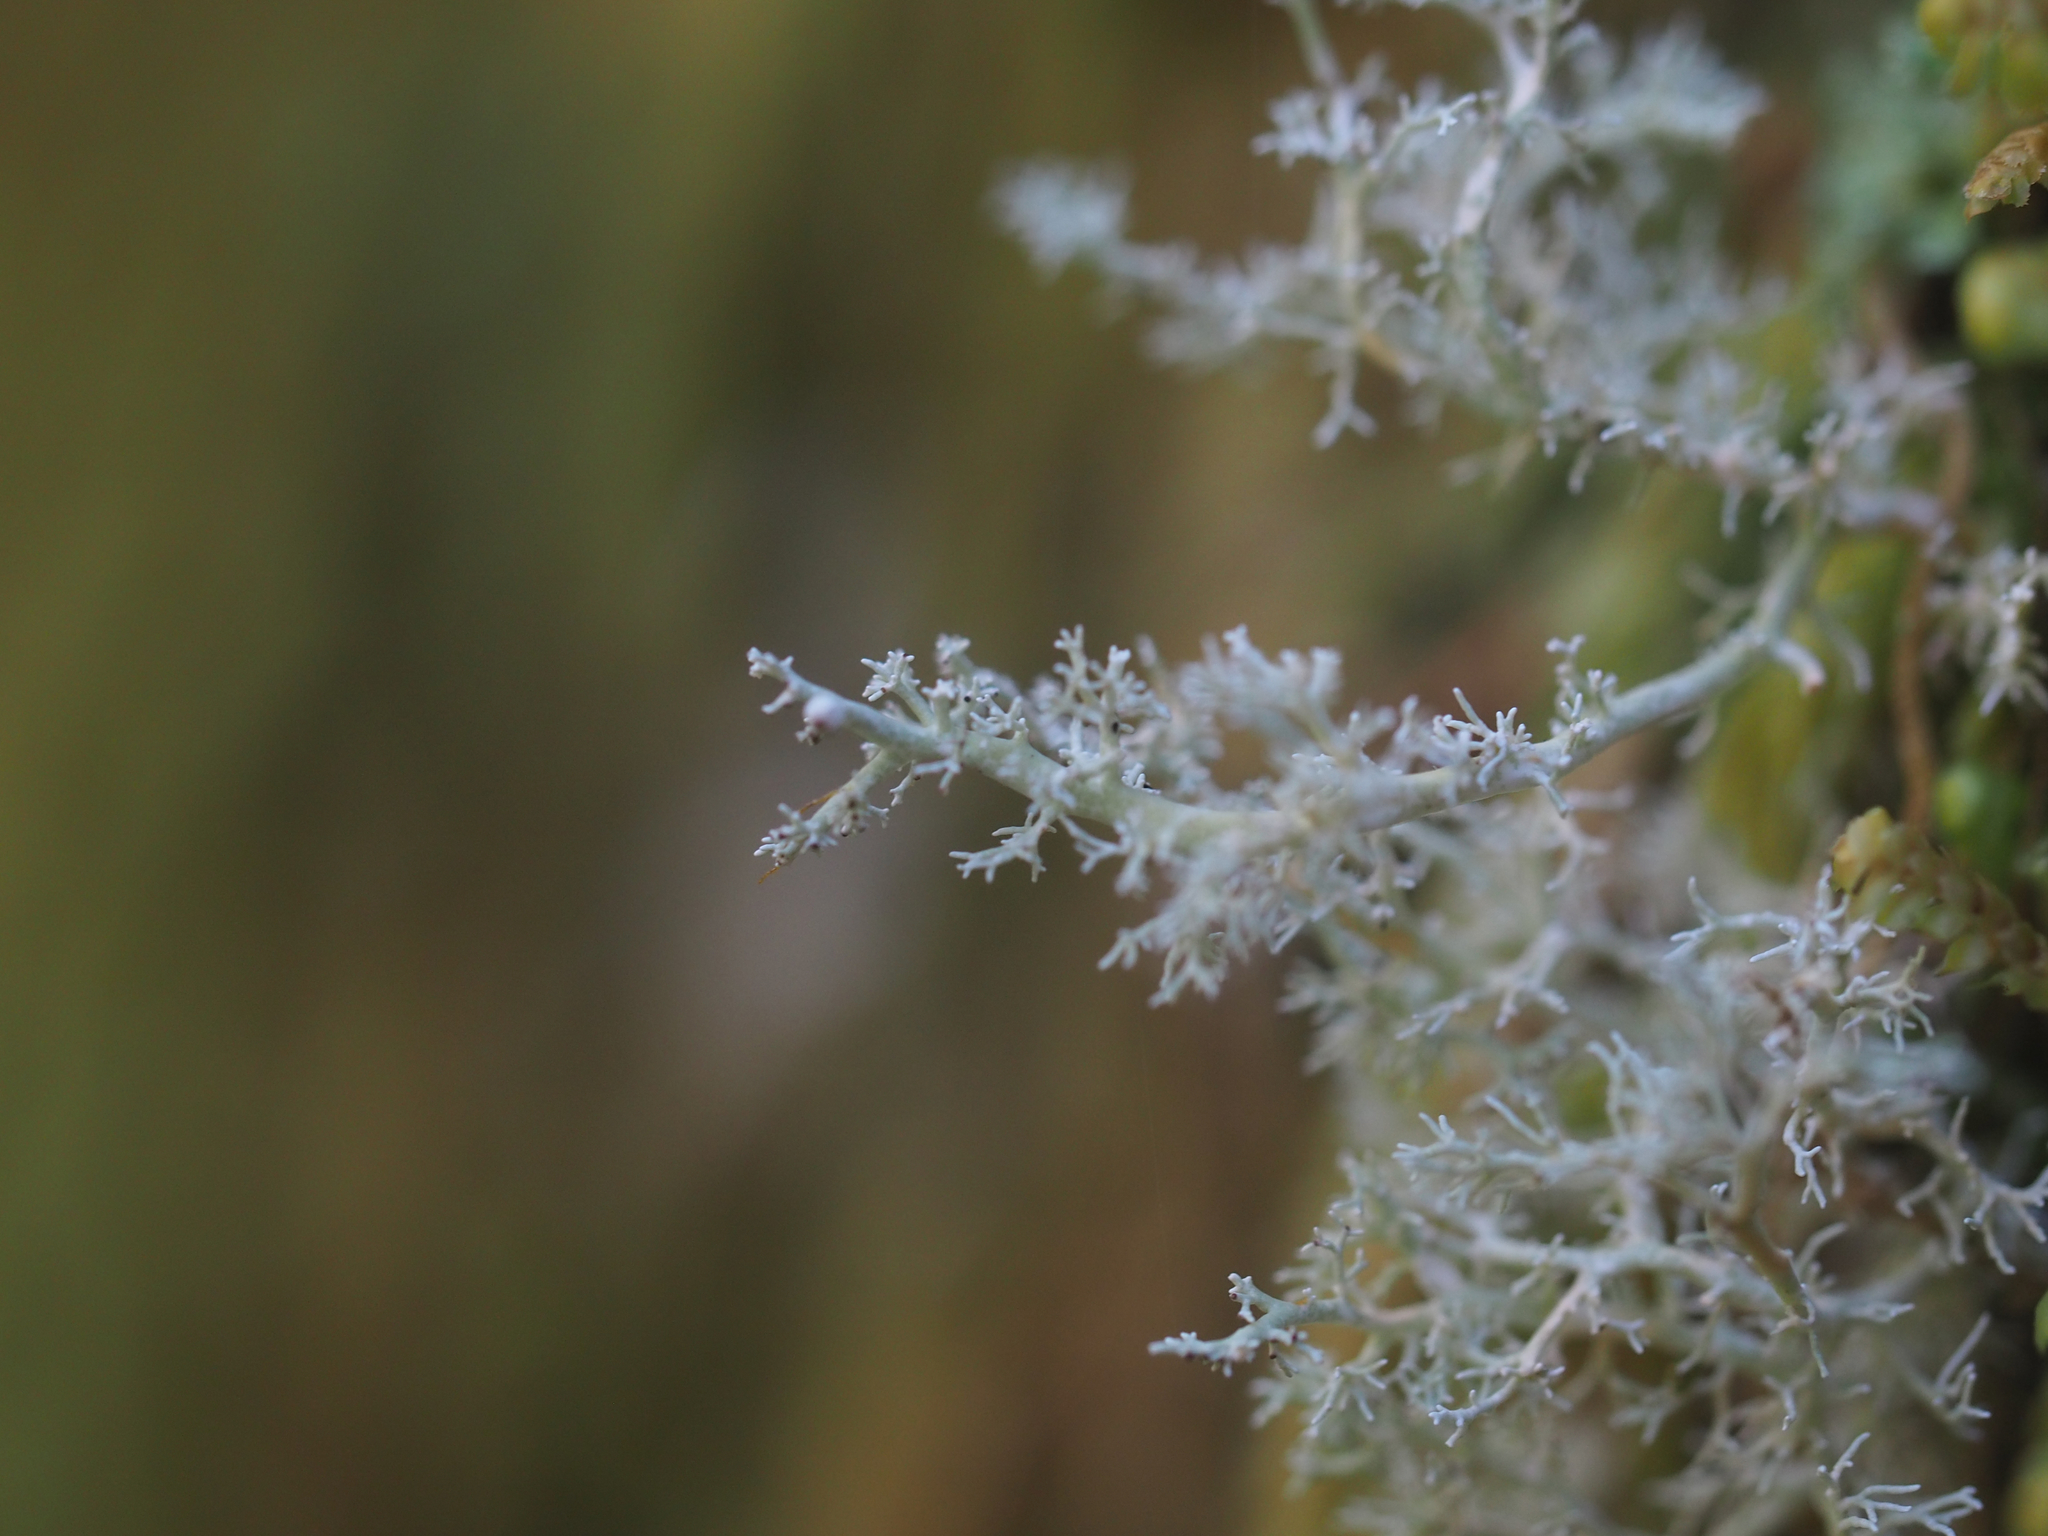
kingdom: Fungi
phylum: Ascomycota
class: Lecanoromycetes
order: Lecanorales
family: Sphaerophoraceae
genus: Sphaerophorus
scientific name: Sphaerophorus globosus
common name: Globe ball lichen
